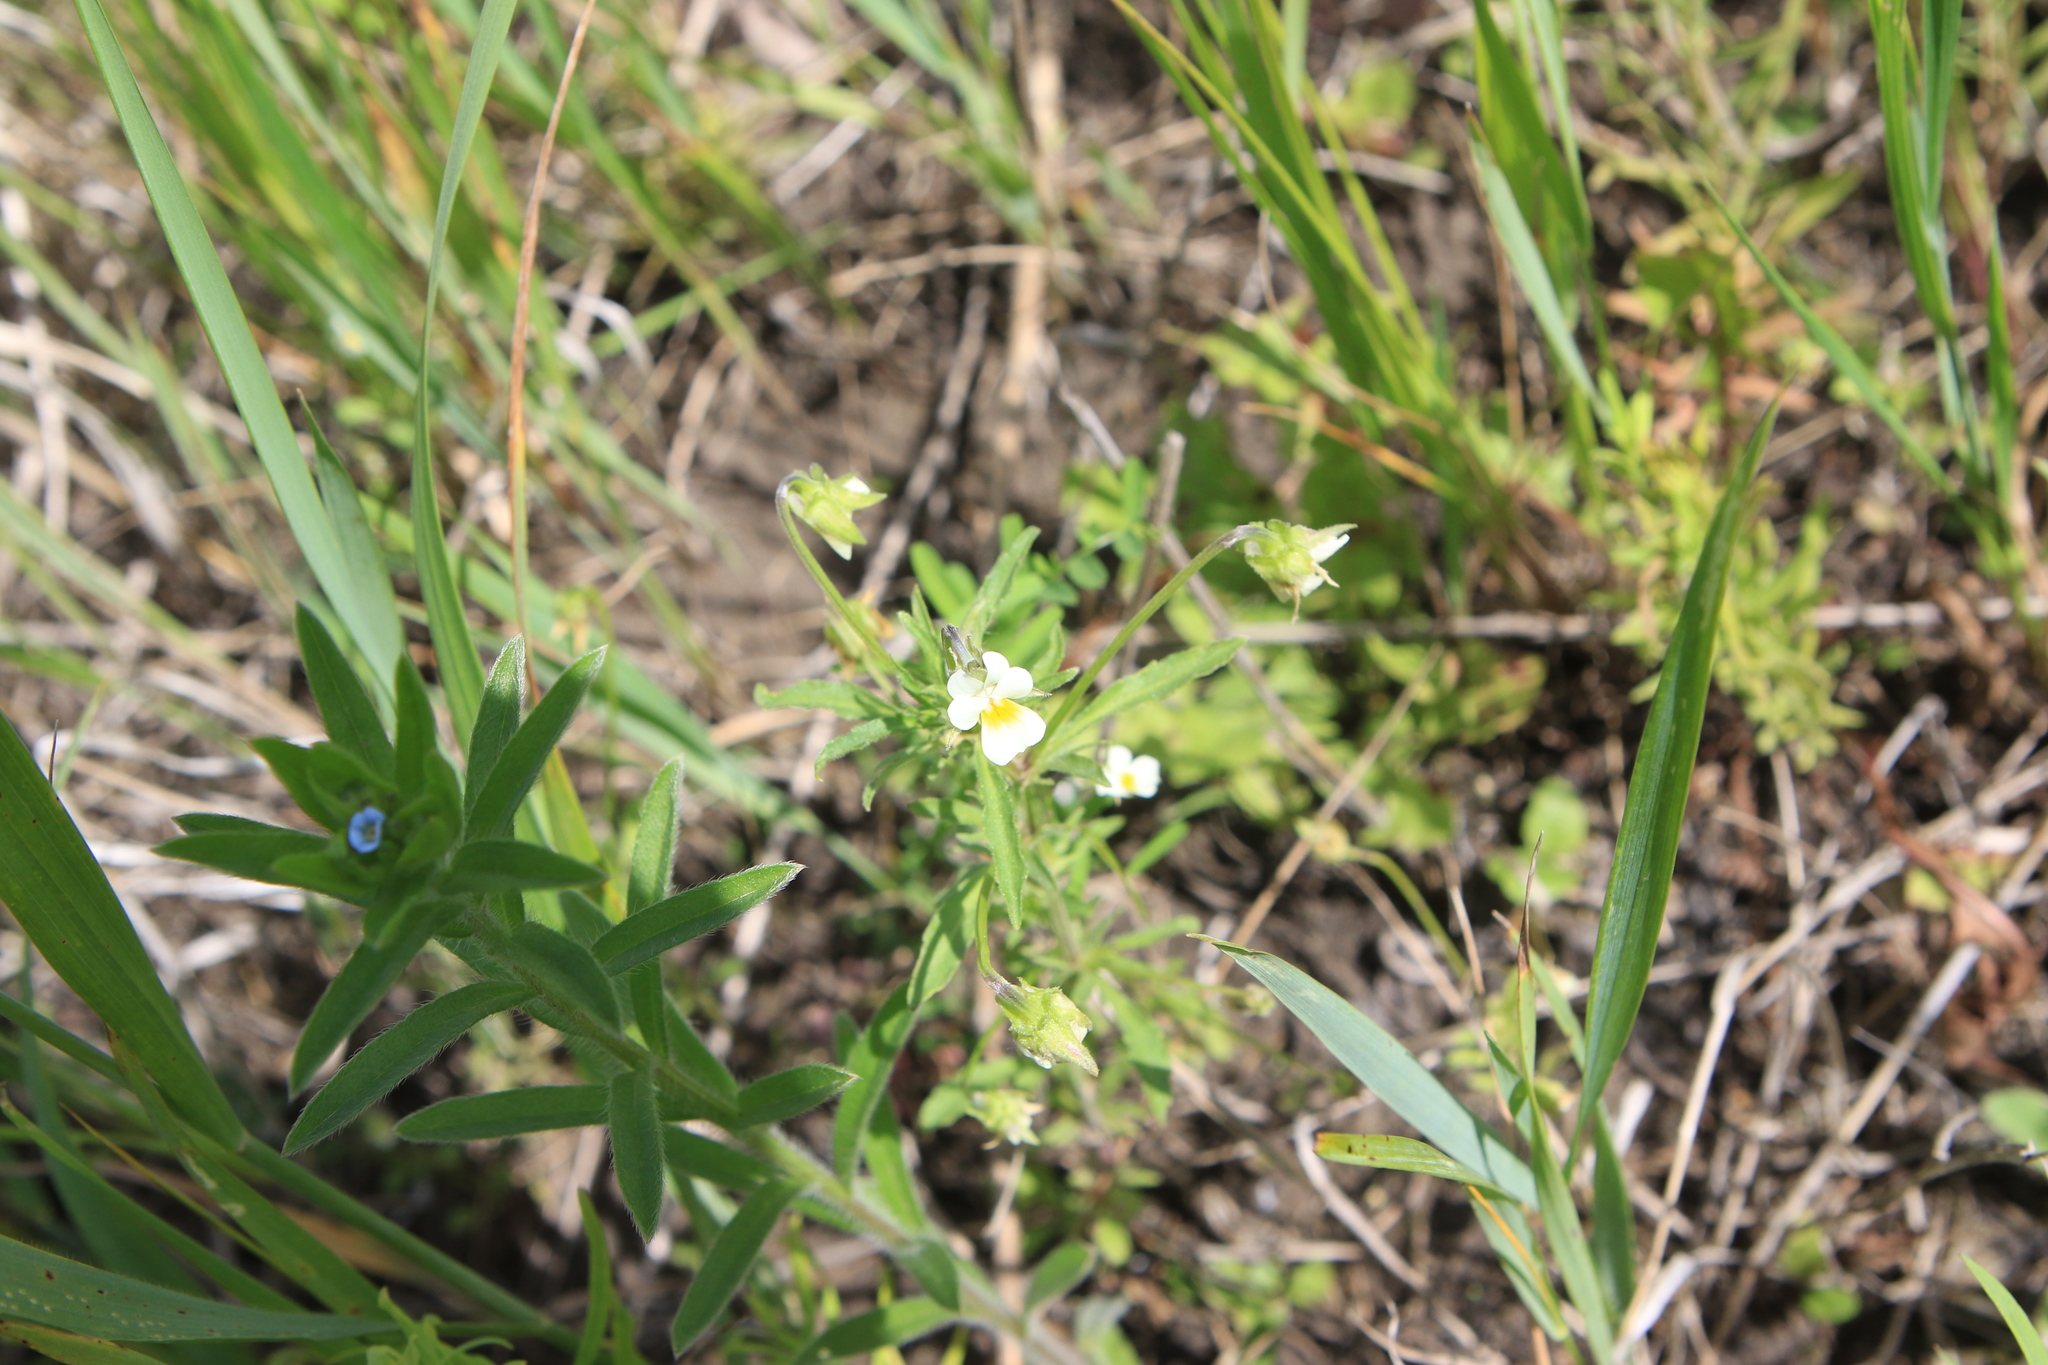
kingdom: Plantae
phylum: Tracheophyta
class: Magnoliopsida
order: Malpighiales
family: Violaceae
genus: Viola
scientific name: Viola arvensis
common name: Field pansy
